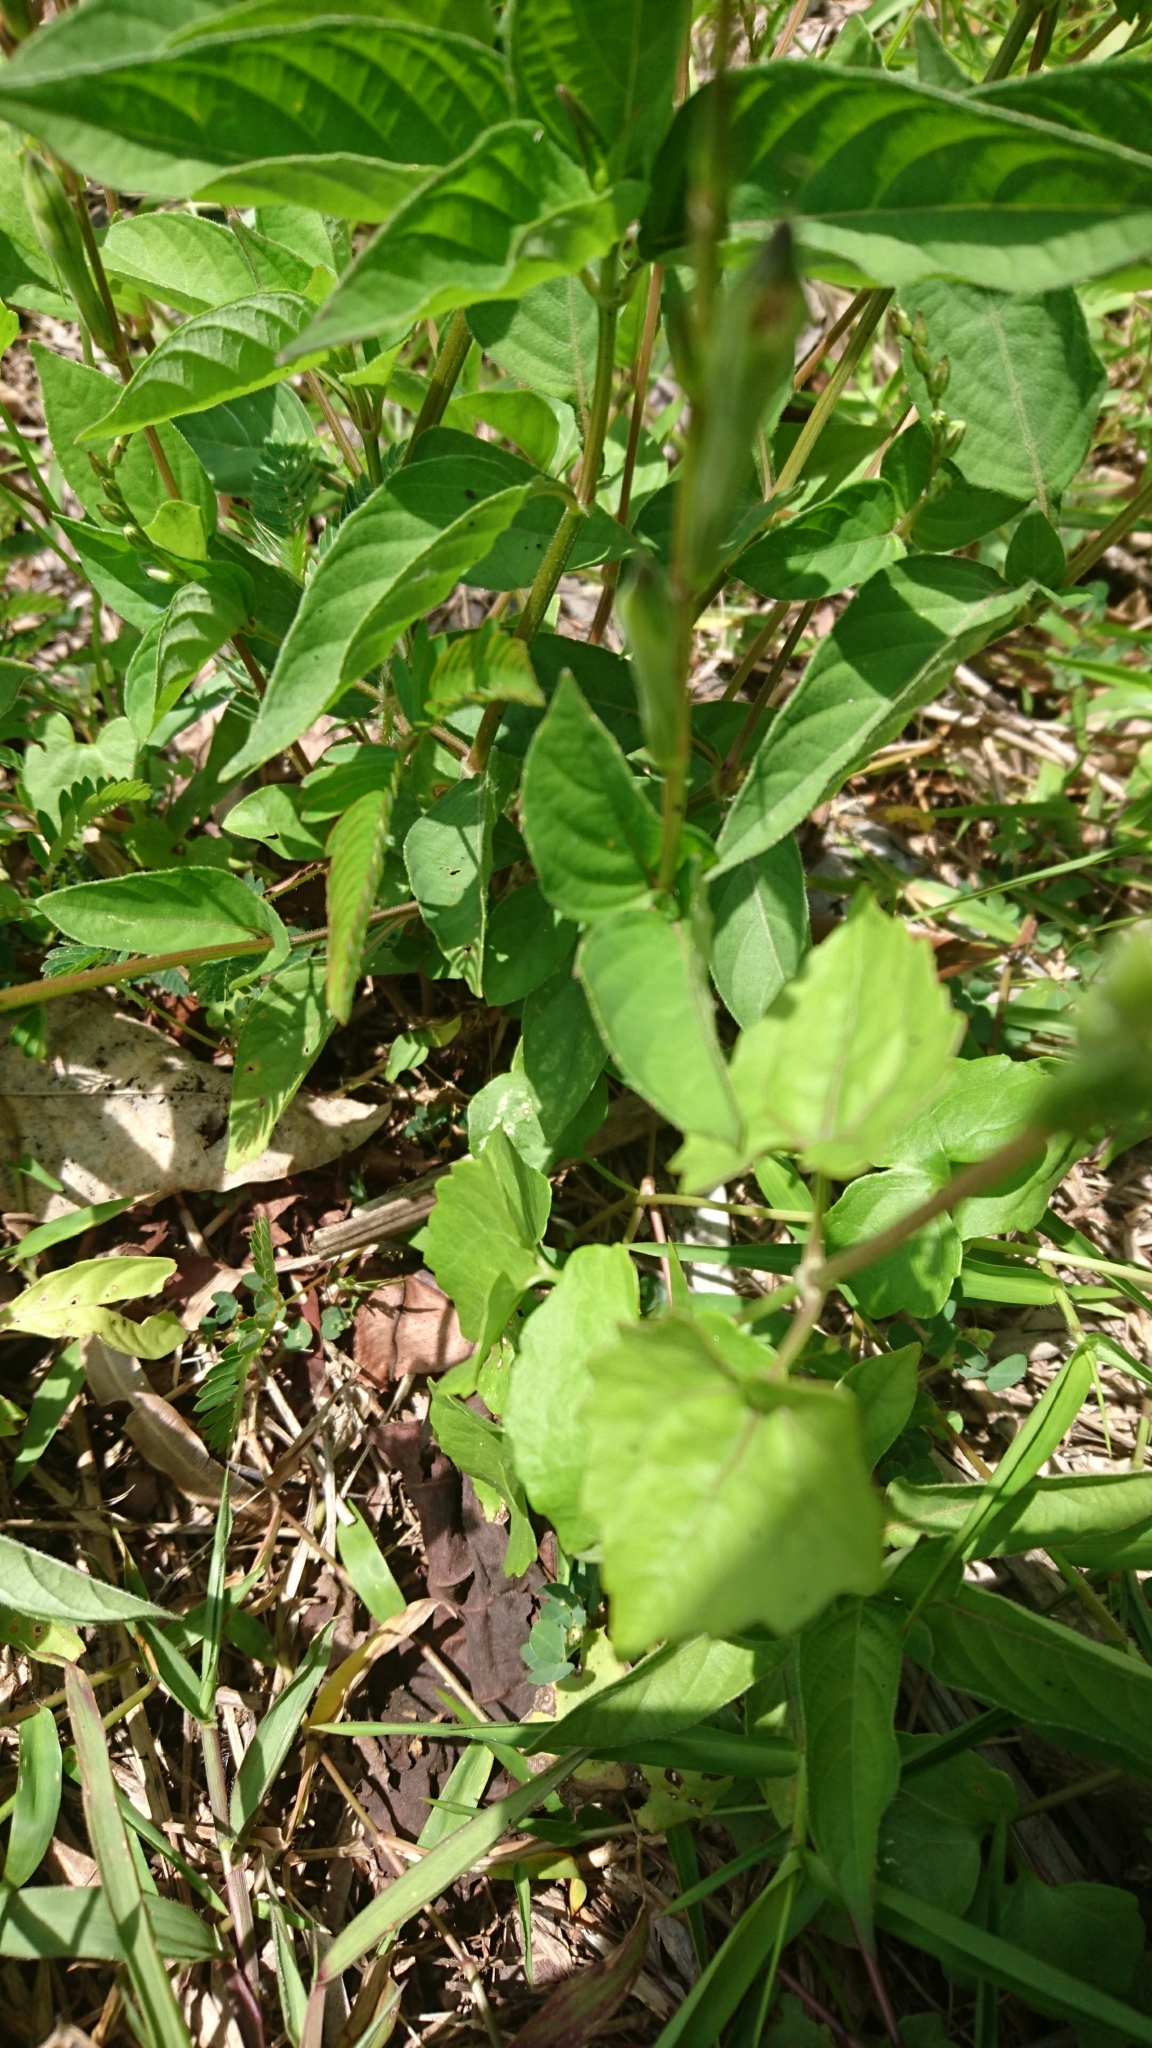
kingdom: Plantae
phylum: Tracheophyta
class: Magnoliopsida
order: Lamiales
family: Acanthaceae
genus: Asystasia
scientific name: Asystasia gangetica
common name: Chinese violet
